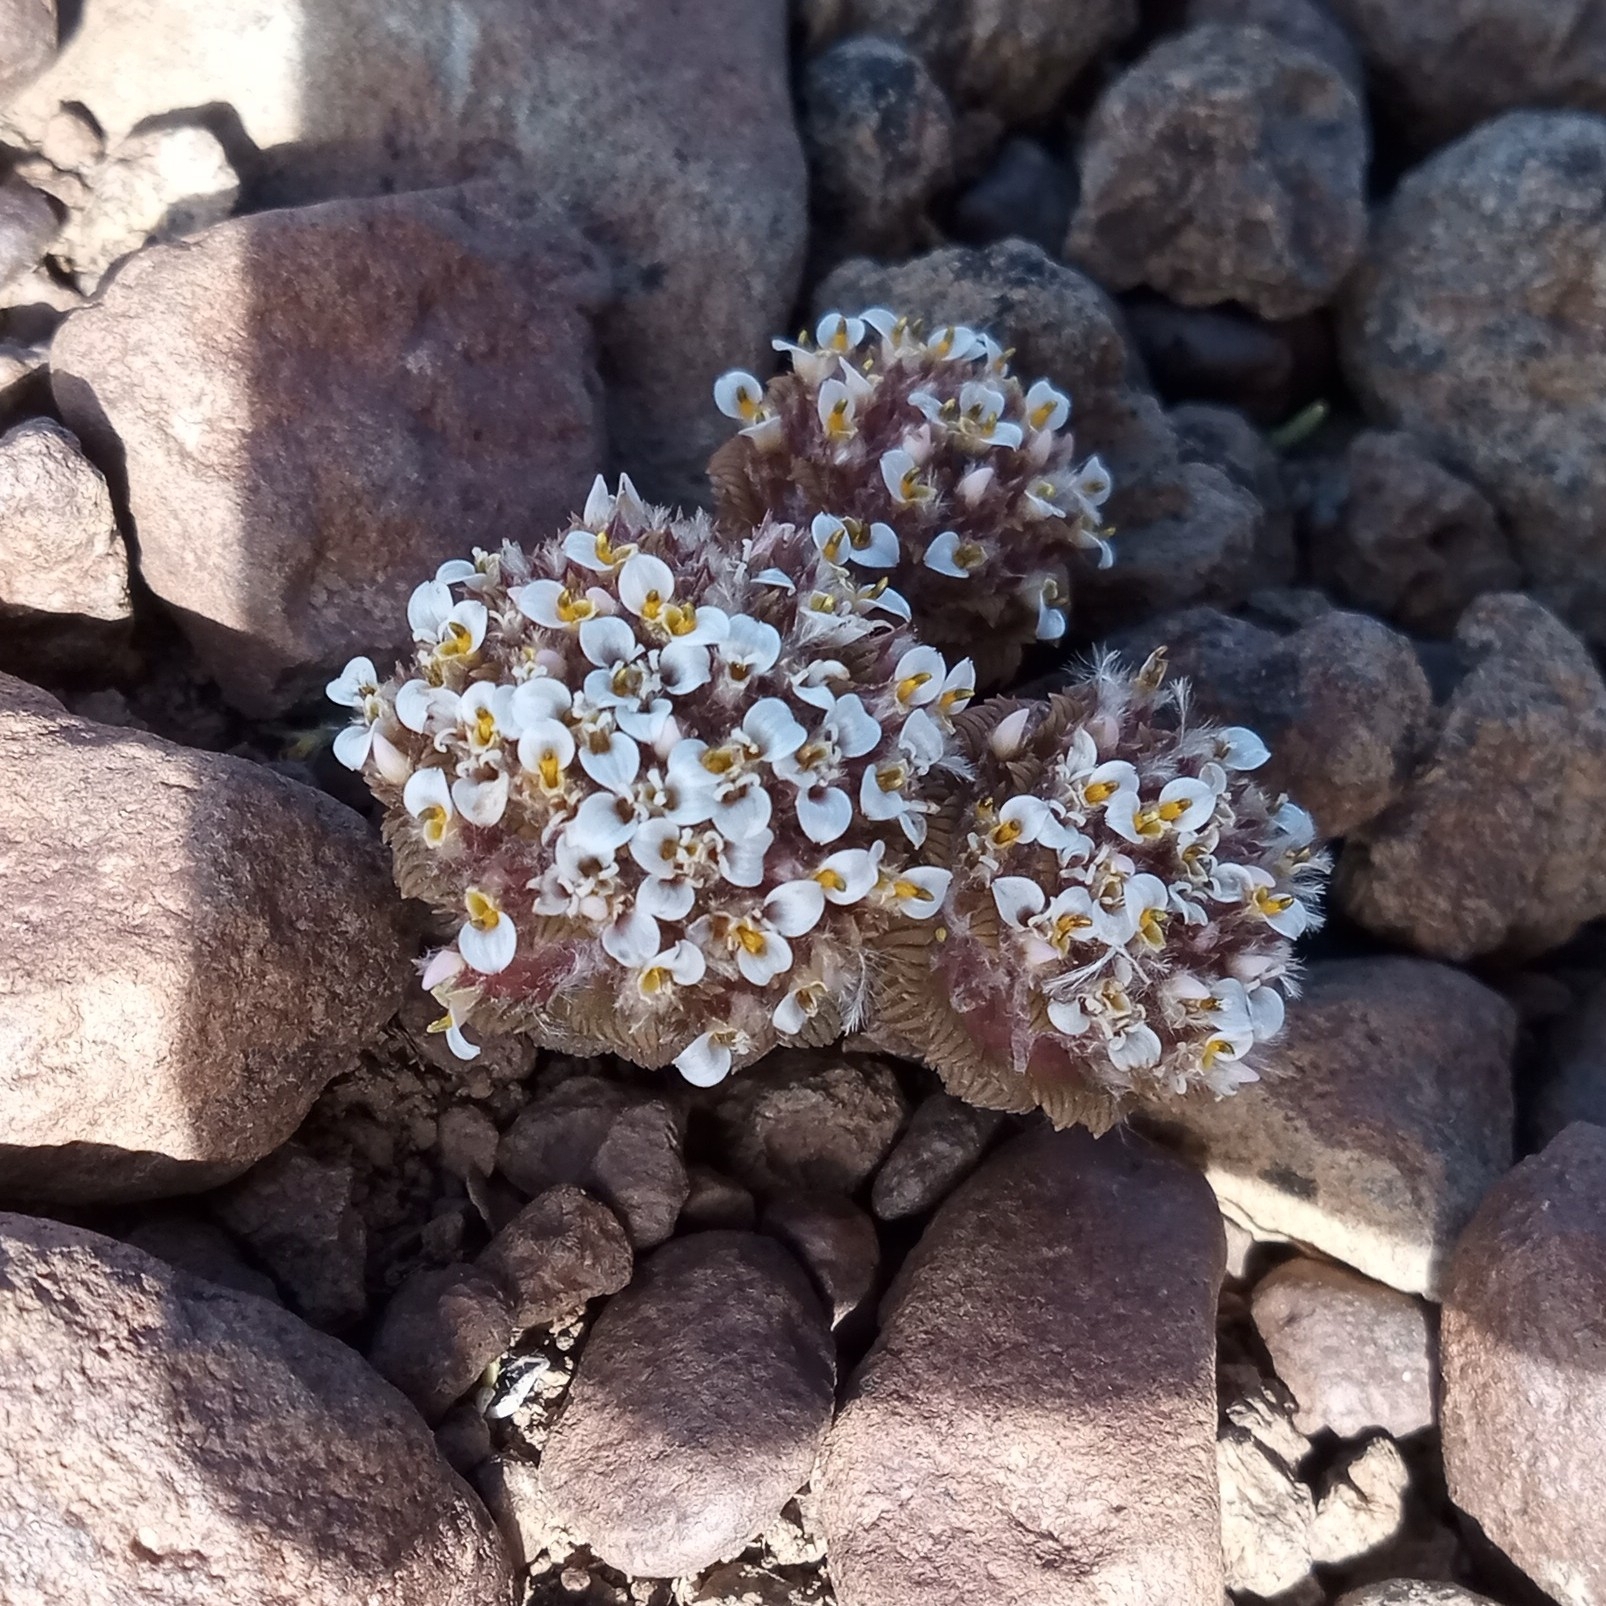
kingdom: Plantae
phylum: Tracheophyta
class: Magnoliopsida
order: Asterales
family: Asteraceae
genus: Nassauvia
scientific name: Nassauvia lagascae
